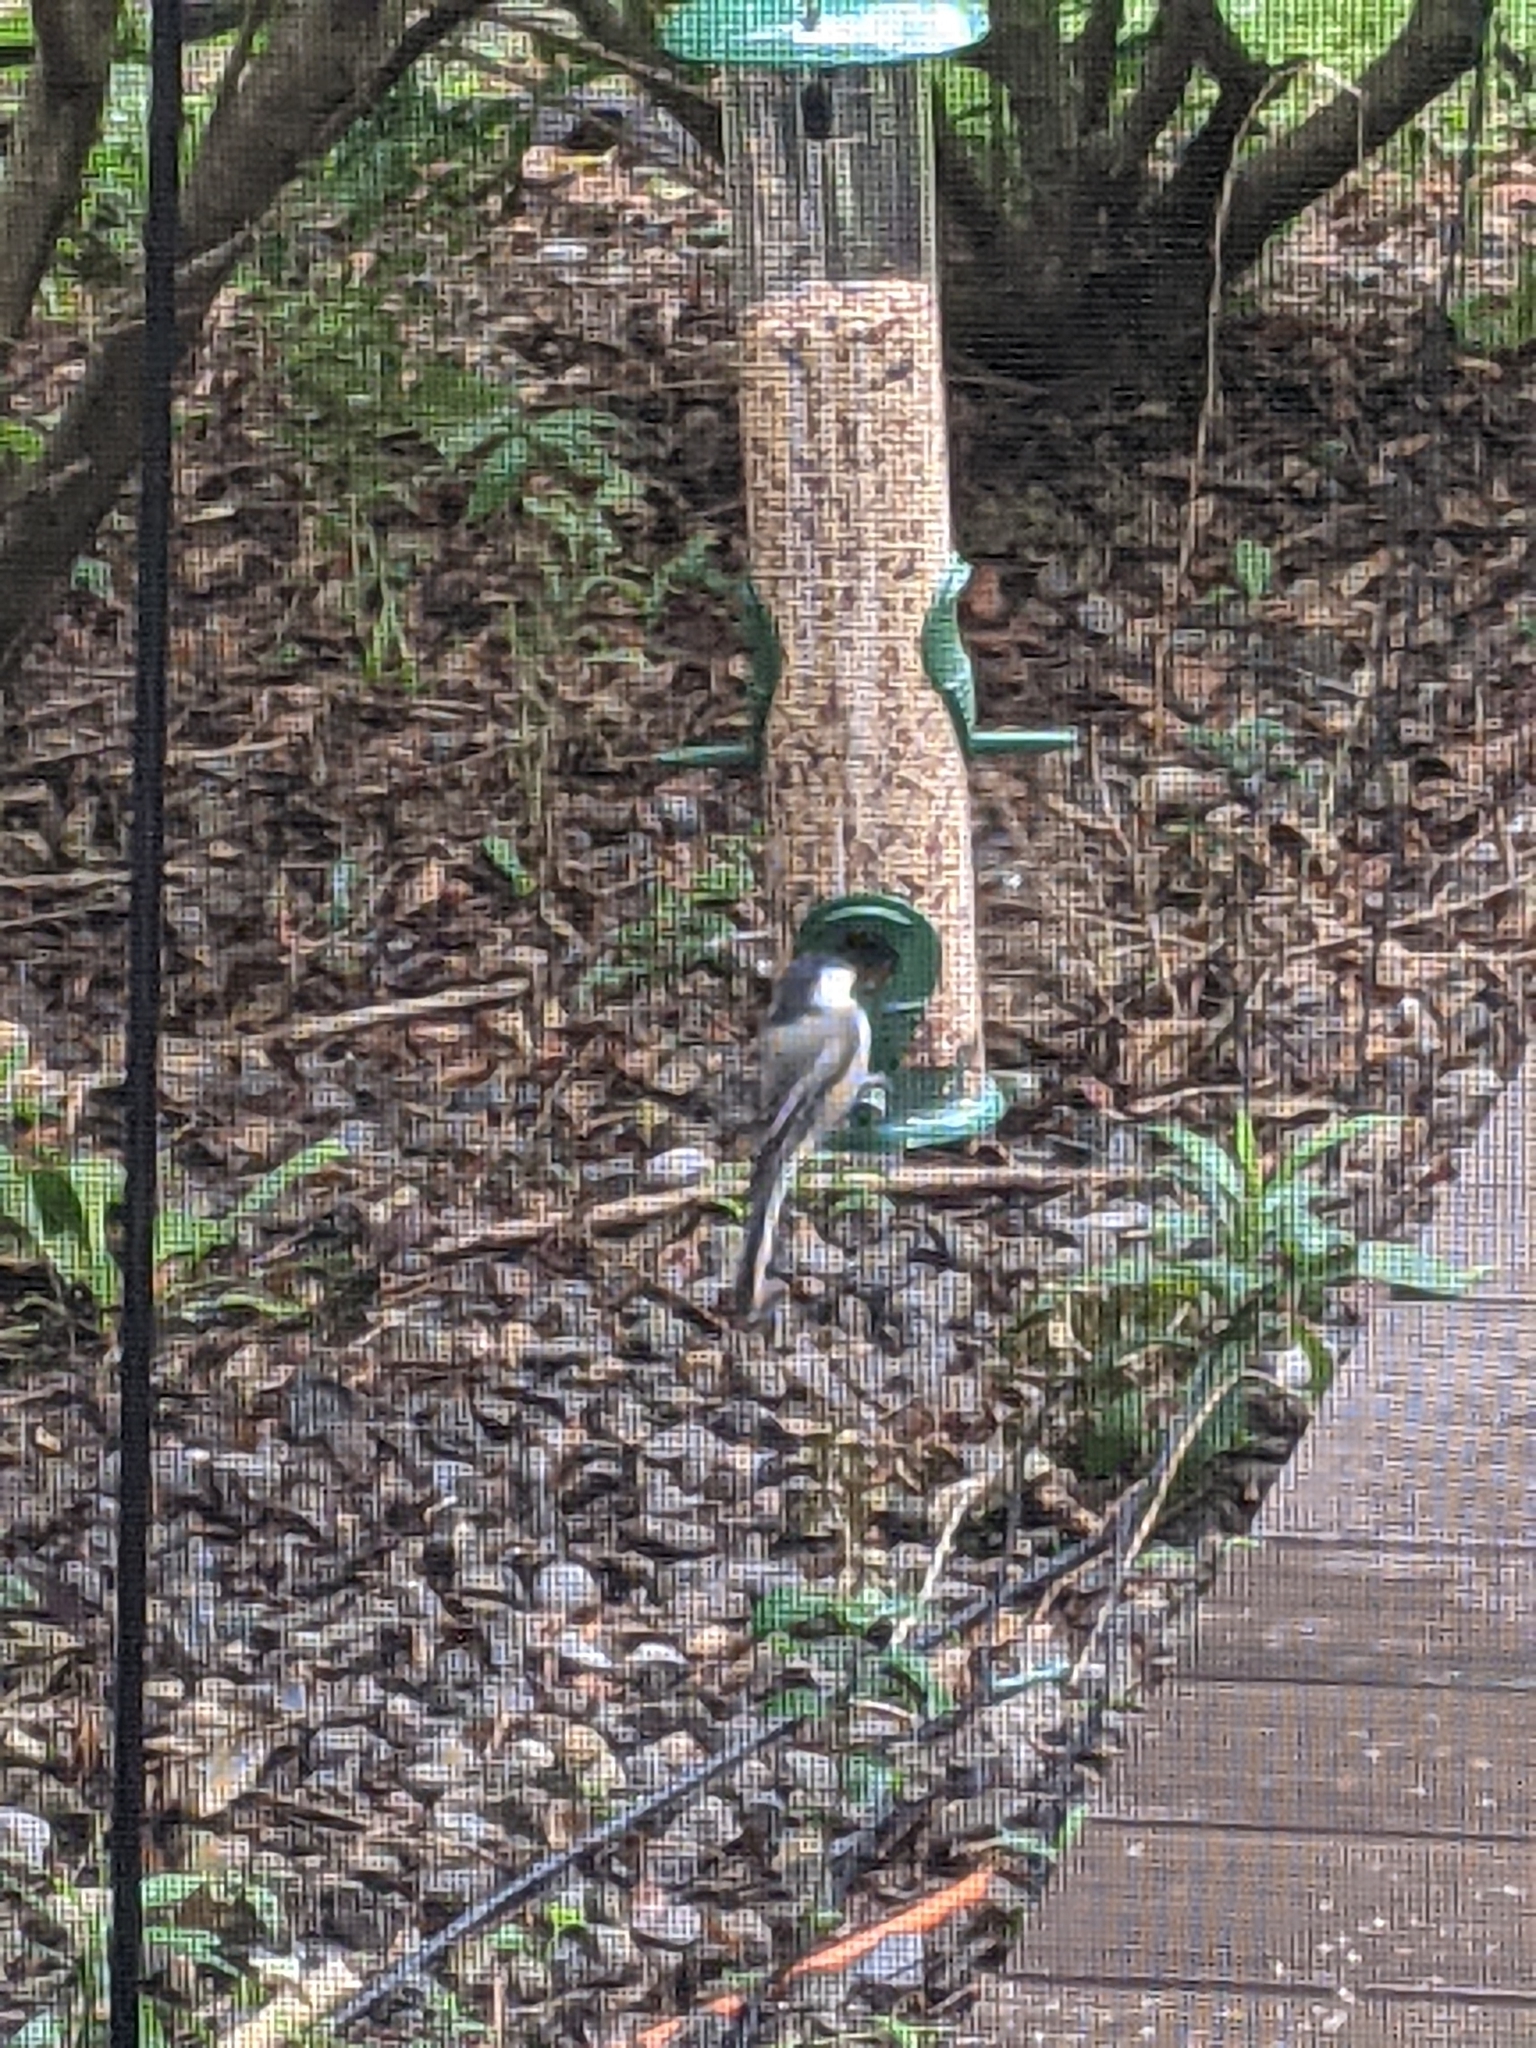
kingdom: Animalia
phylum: Chordata
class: Aves
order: Passeriformes
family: Paridae
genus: Poecile
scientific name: Poecile atricapillus
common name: Black-capped chickadee
